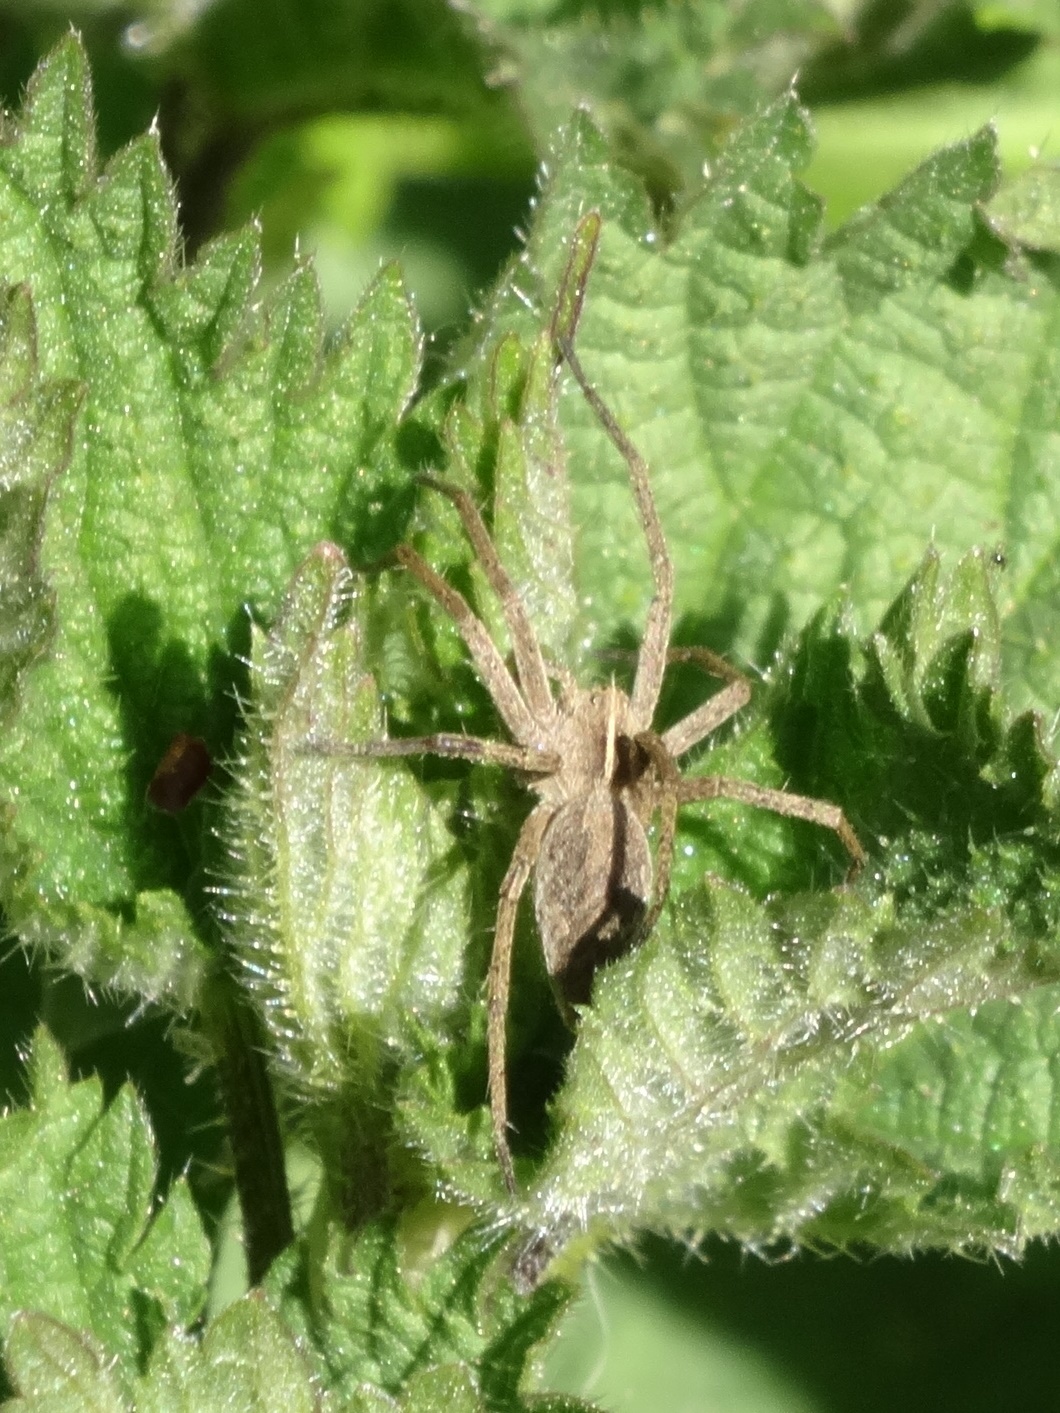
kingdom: Animalia
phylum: Arthropoda
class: Arachnida
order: Araneae
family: Pisauridae
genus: Pisaura
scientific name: Pisaura mirabilis
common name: Tent spider
